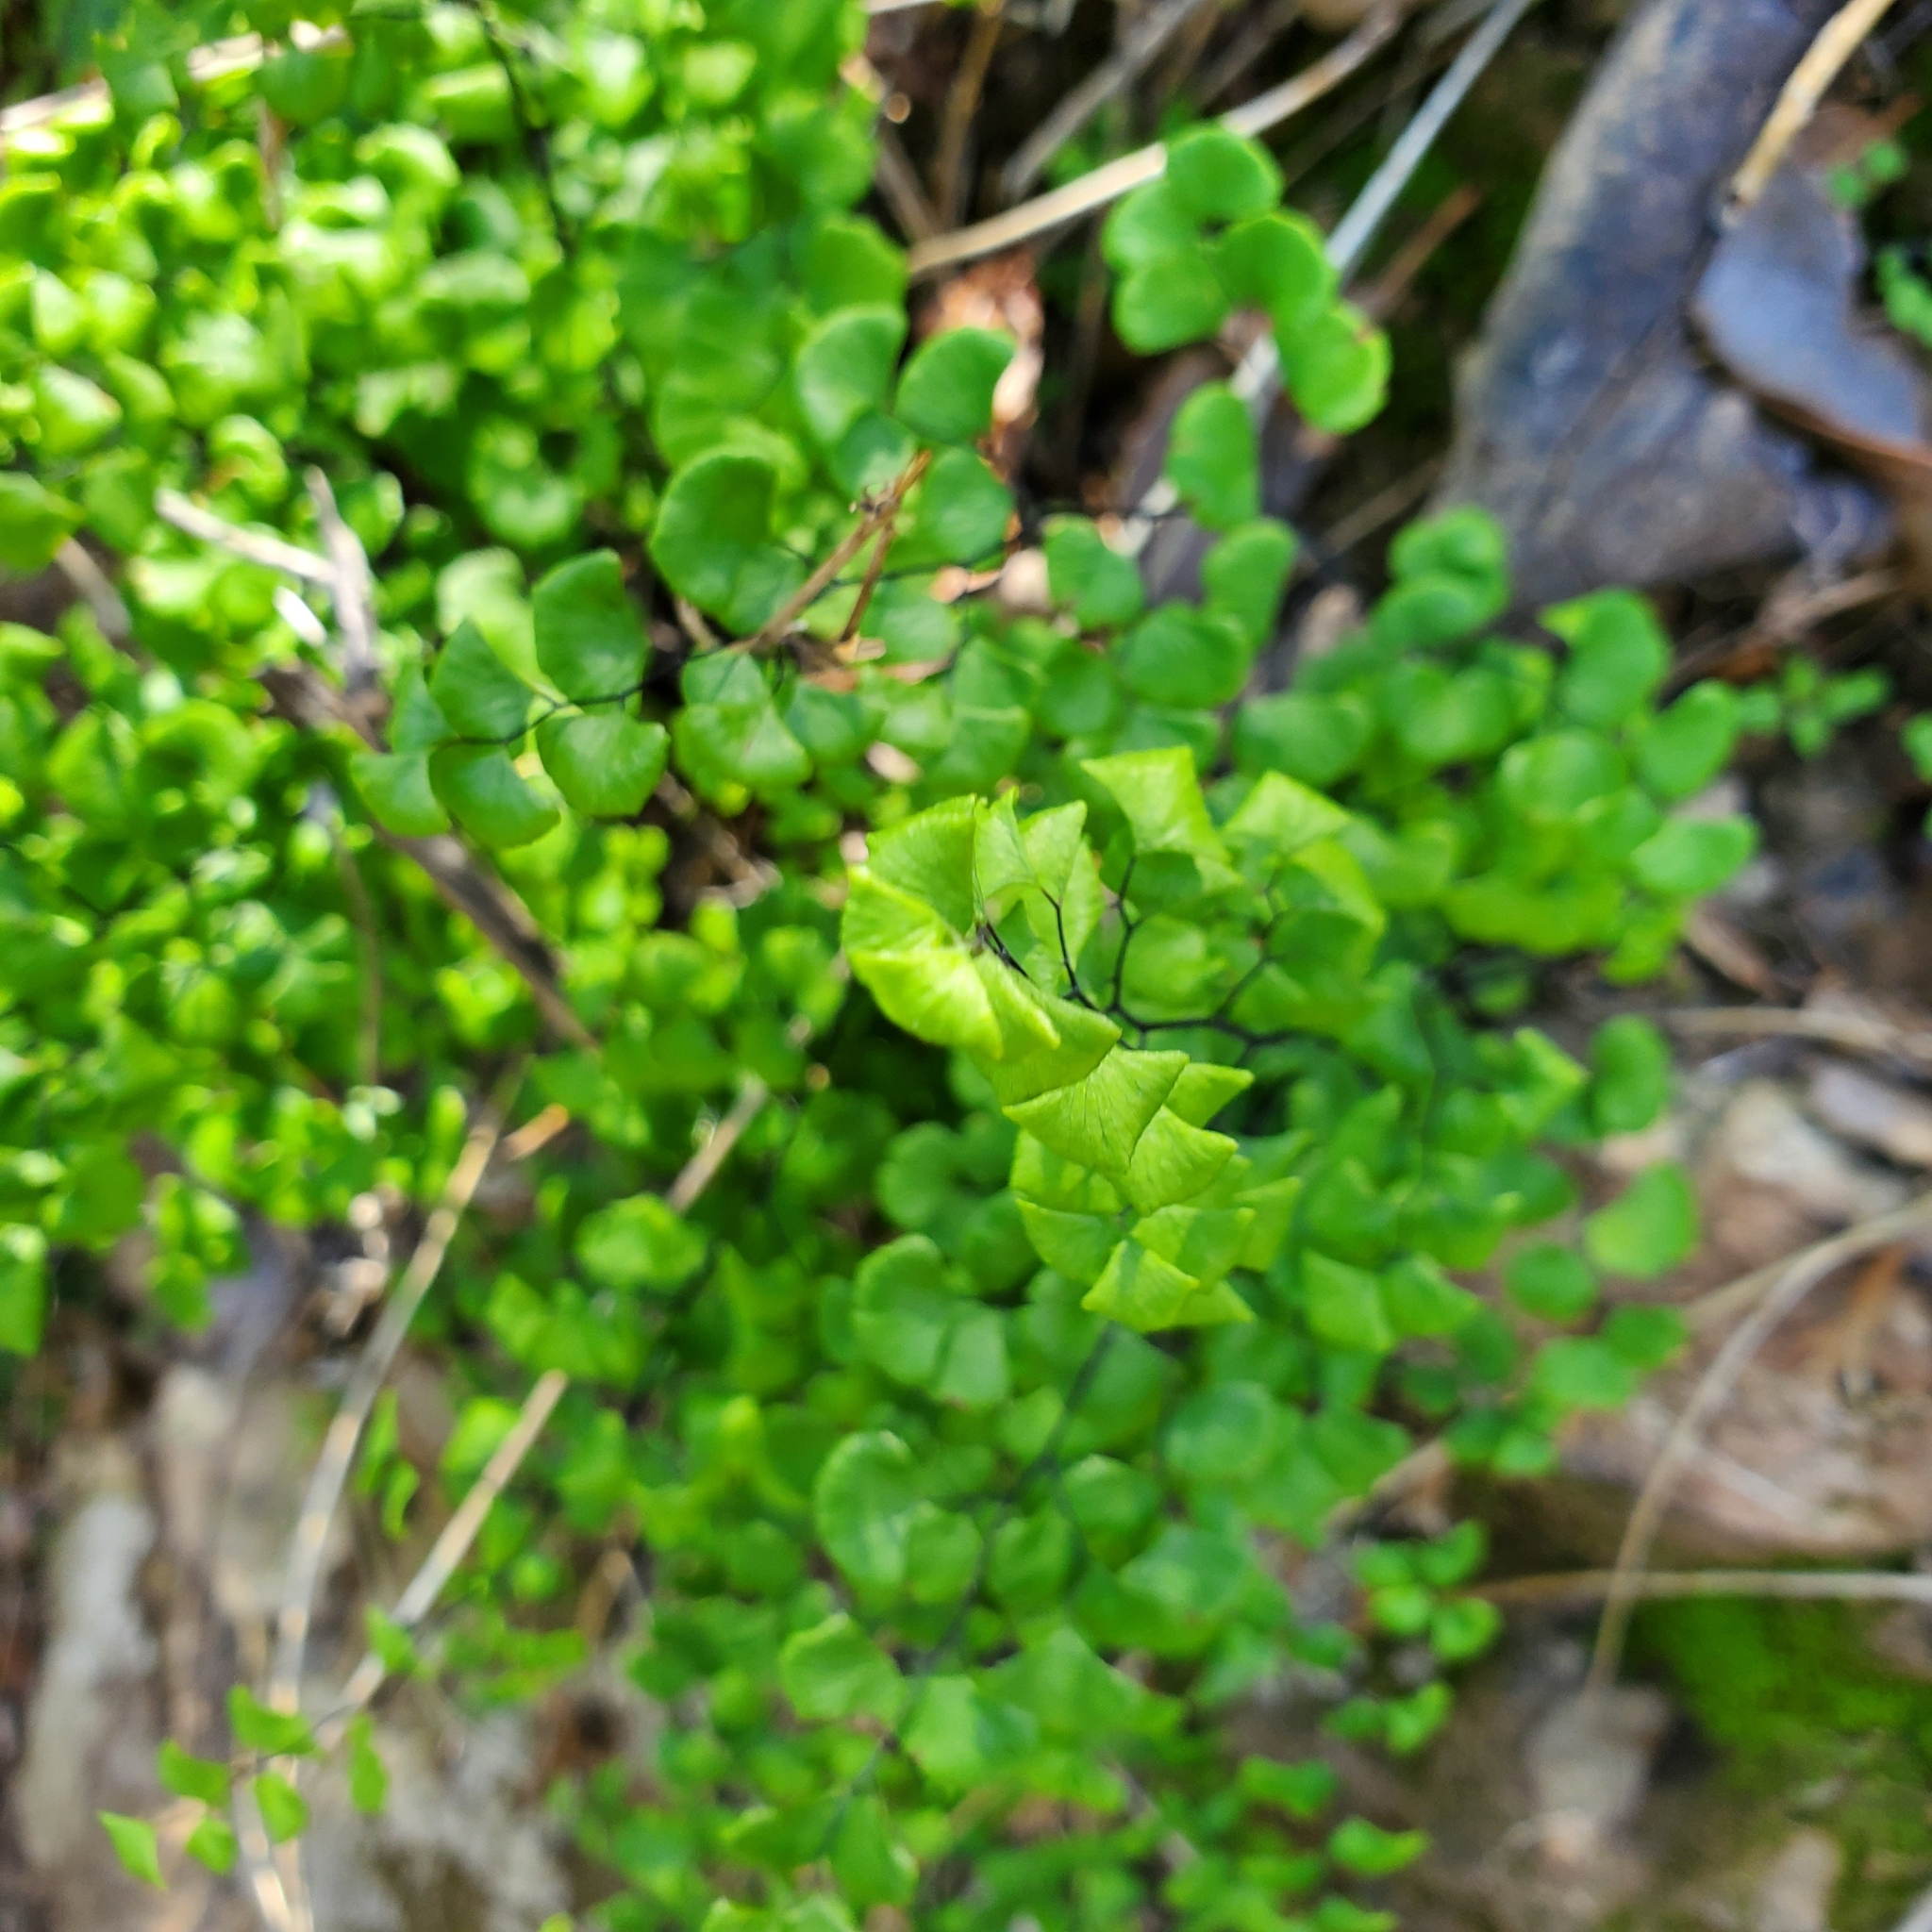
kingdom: Plantae
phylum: Tracheophyta
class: Polypodiopsida
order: Polypodiales
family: Pteridaceae
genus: Adiantum
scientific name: Adiantum jordanii
